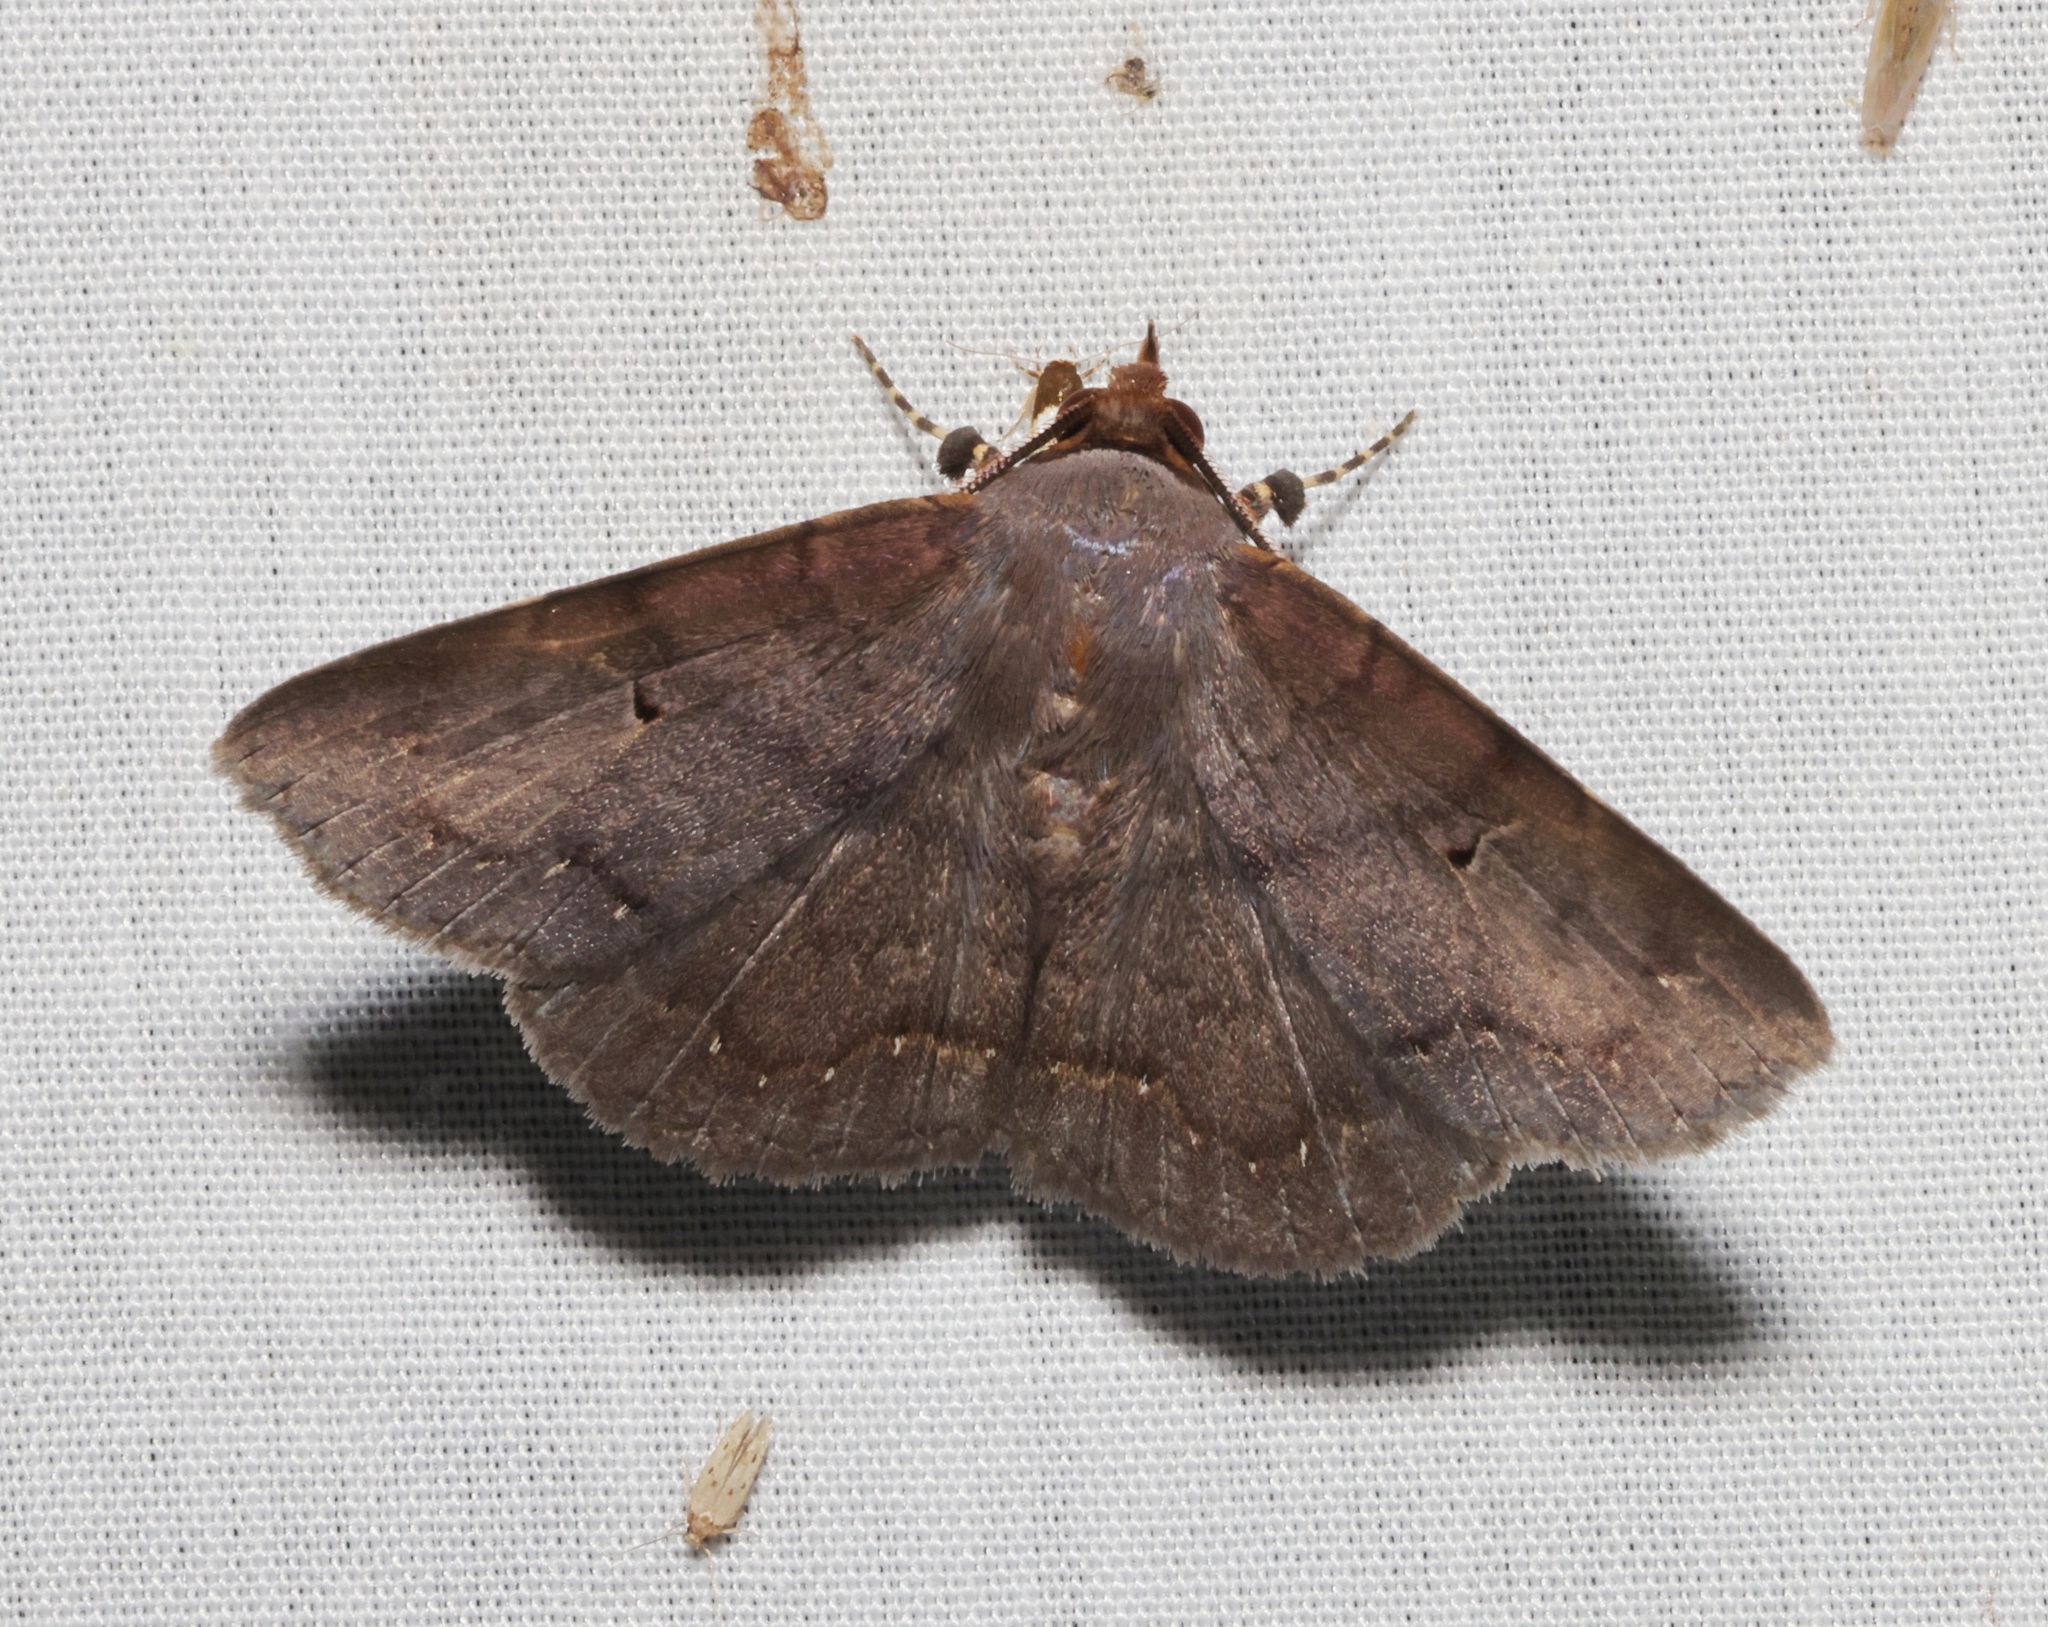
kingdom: Animalia
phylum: Arthropoda
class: Insecta
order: Lepidoptera
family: Erebidae
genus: Mecodina
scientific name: Mecodina bisignata
